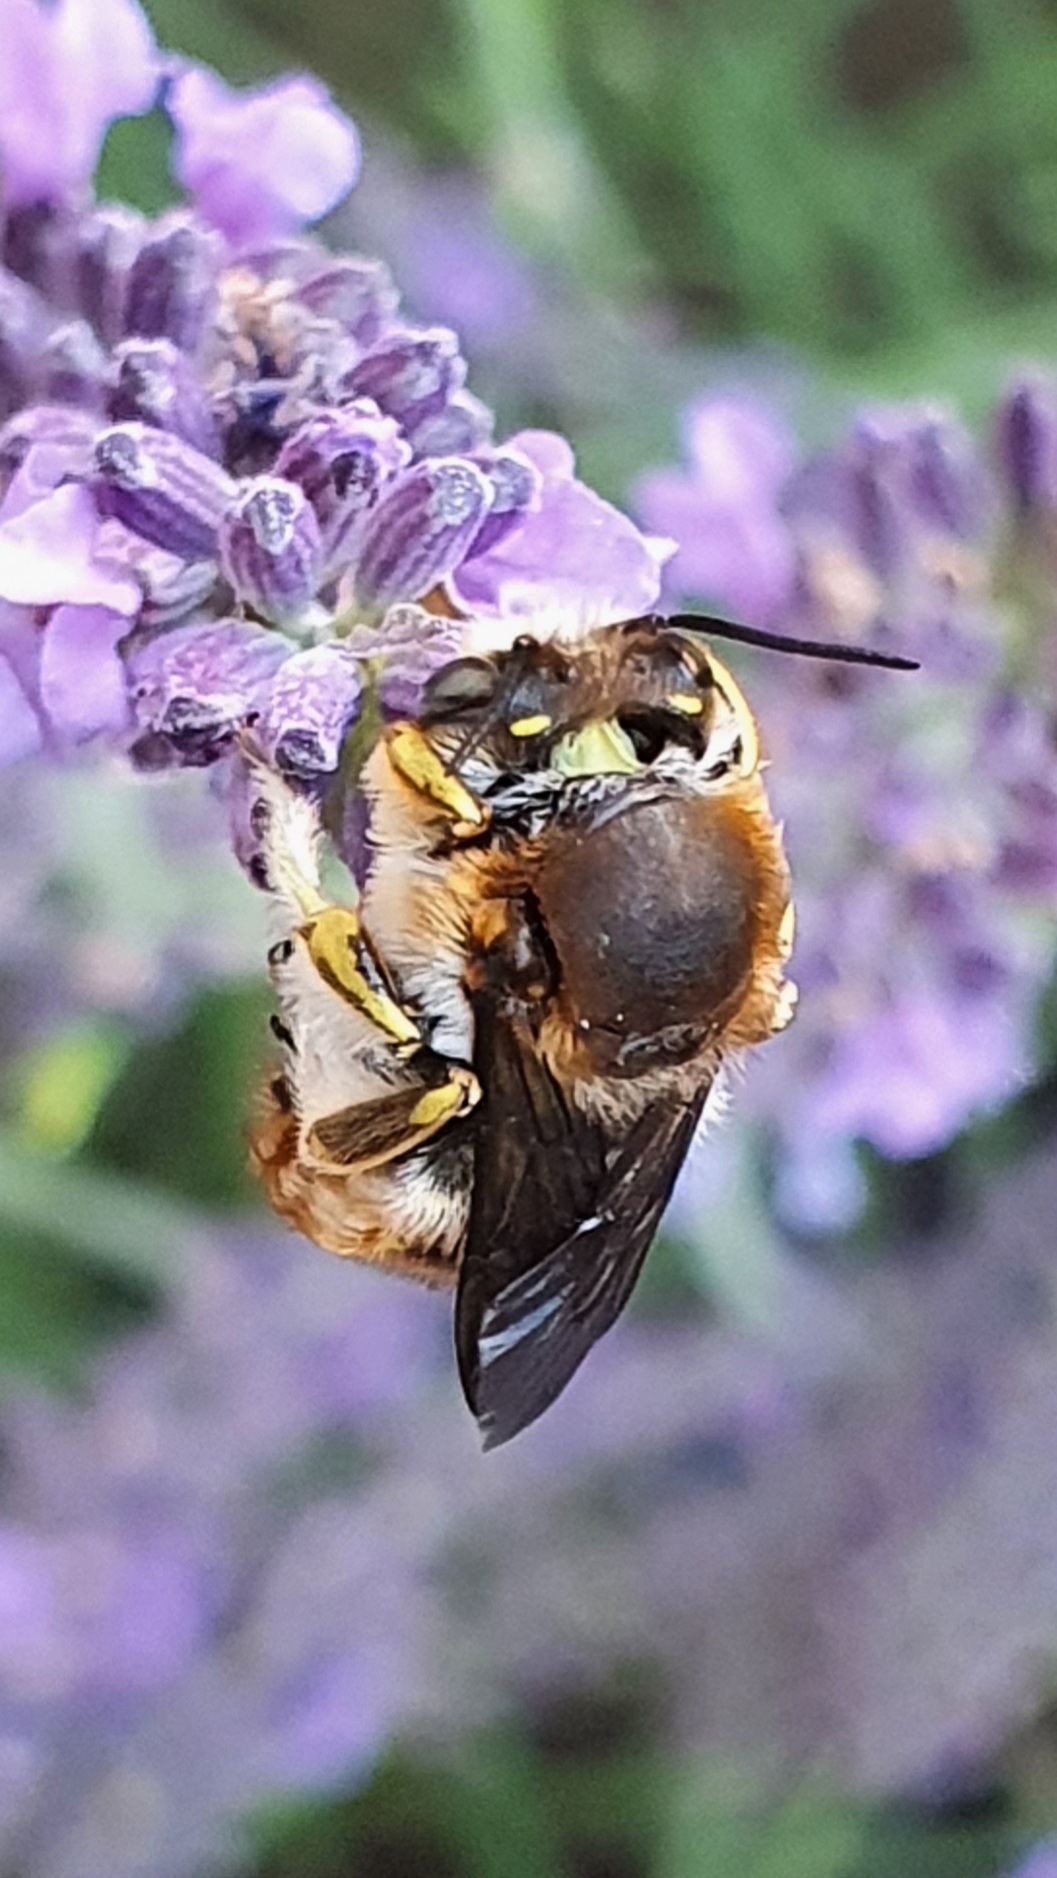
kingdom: Animalia
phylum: Arthropoda
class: Insecta
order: Hymenoptera
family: Megachilidae
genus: Anthidium
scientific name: Anthidium manicatum
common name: Wool carder bee
